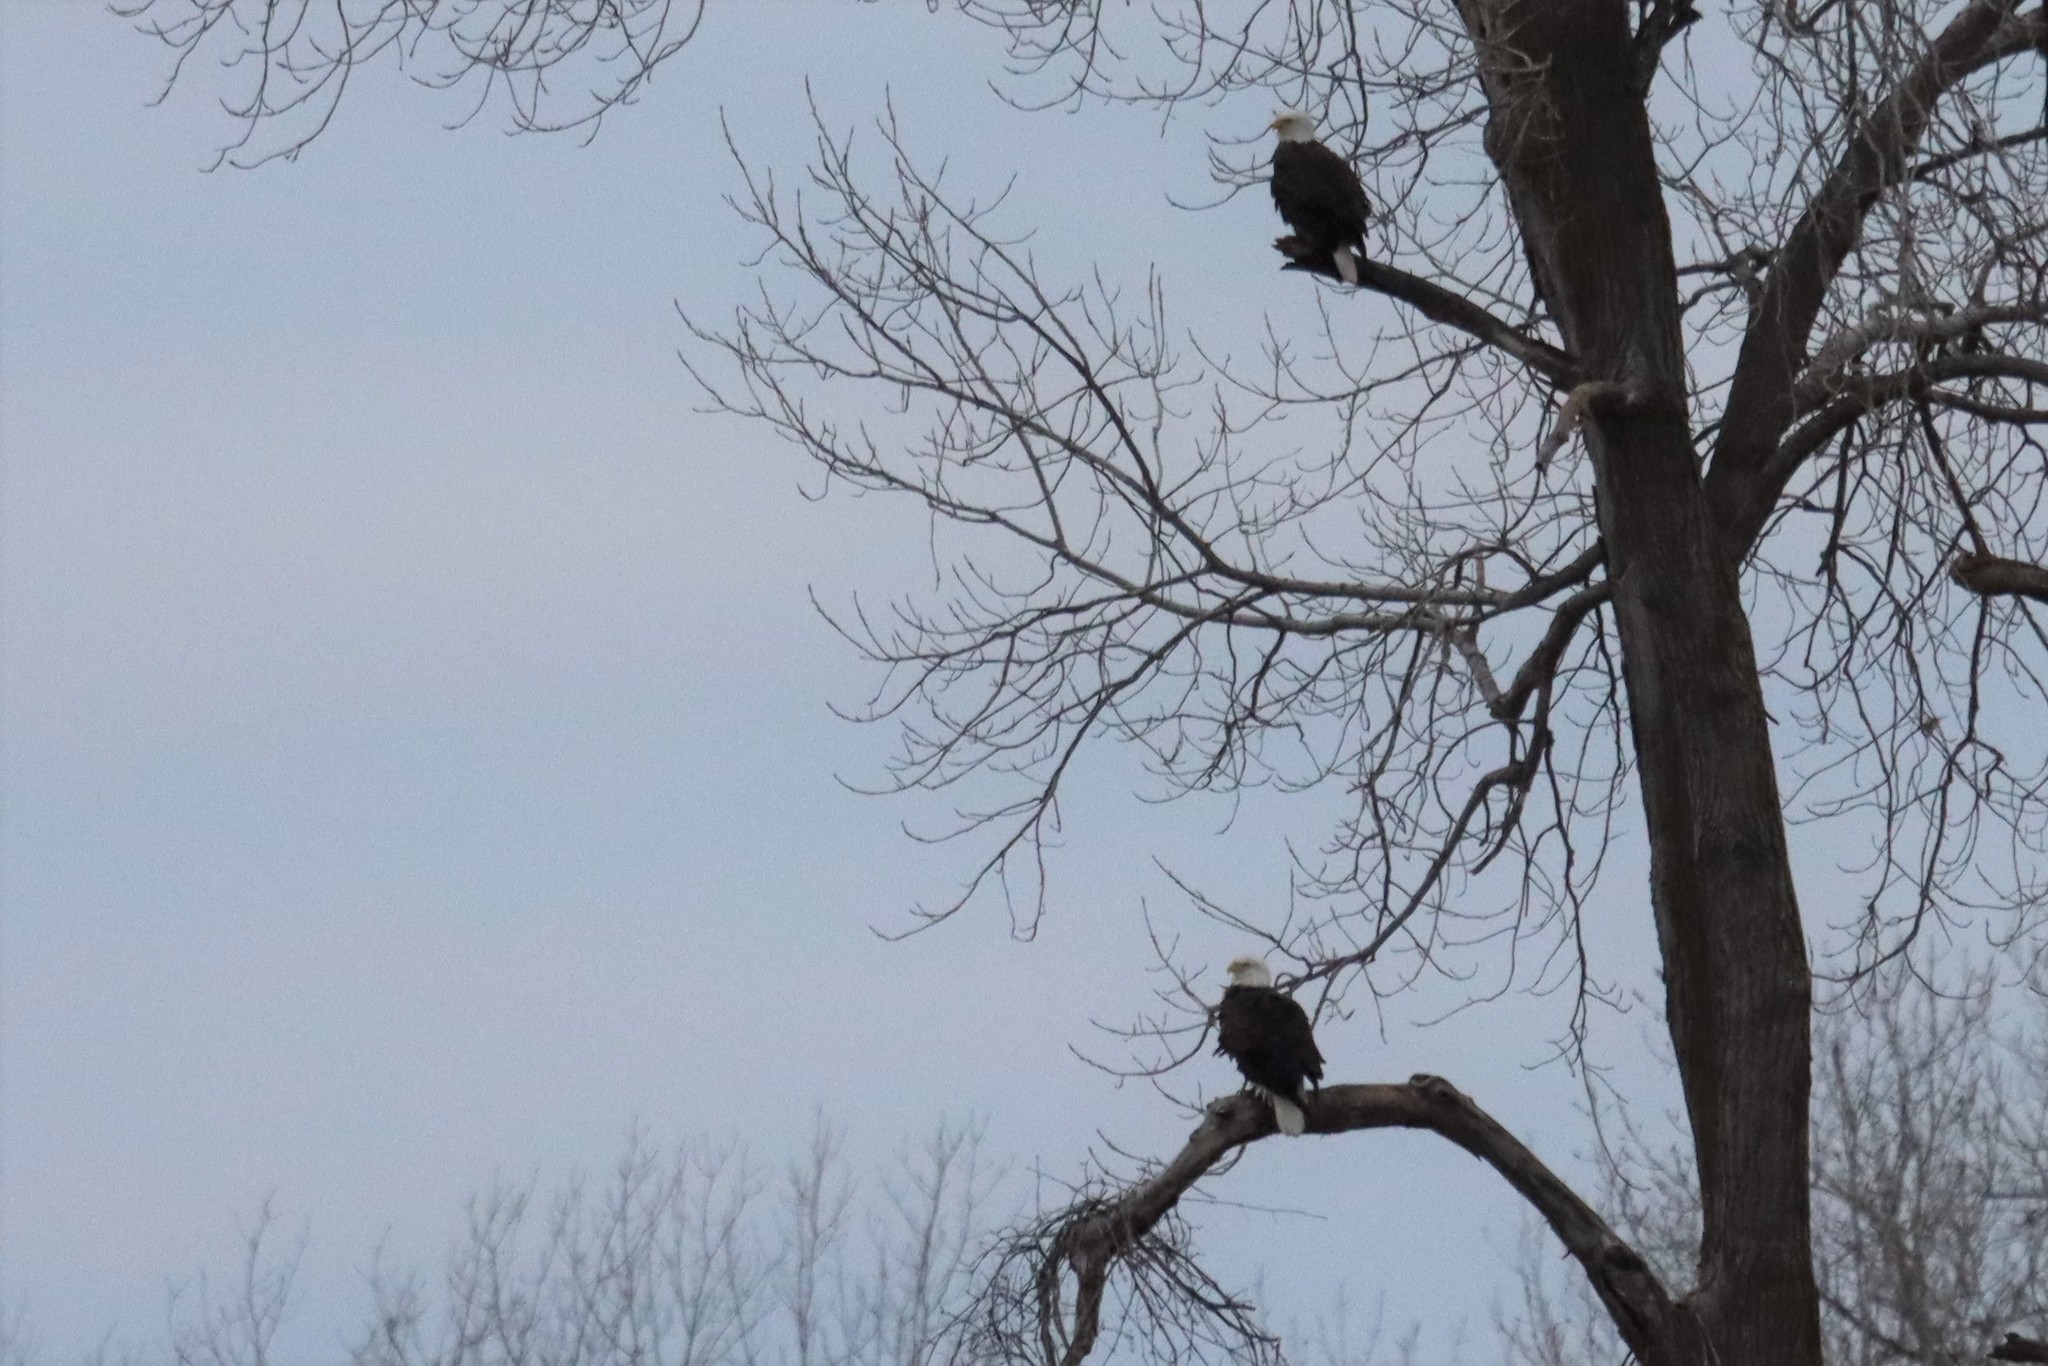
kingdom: Animalia
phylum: Chordata
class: Aves
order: Accipitriformes
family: Accipitridae
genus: Haliaeetus
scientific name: Haliaeetus leucocephalus
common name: Bald eagle
